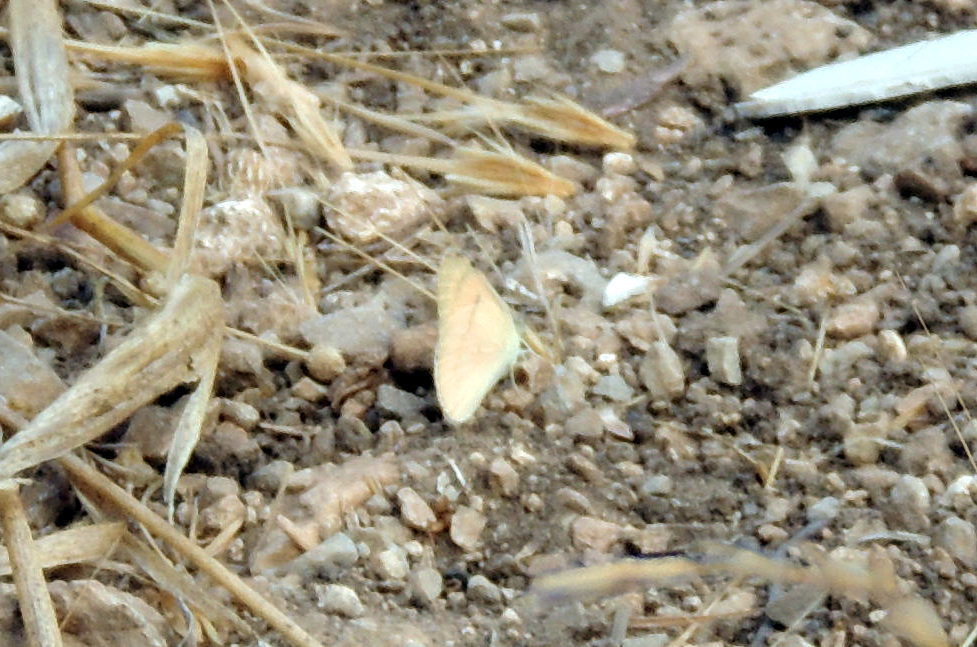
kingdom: Animalia
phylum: Arthropoda
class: Insecta
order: Lepidoptera
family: Pieridae
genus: Colotis
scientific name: Colotis fausta
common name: Large salmon arab
